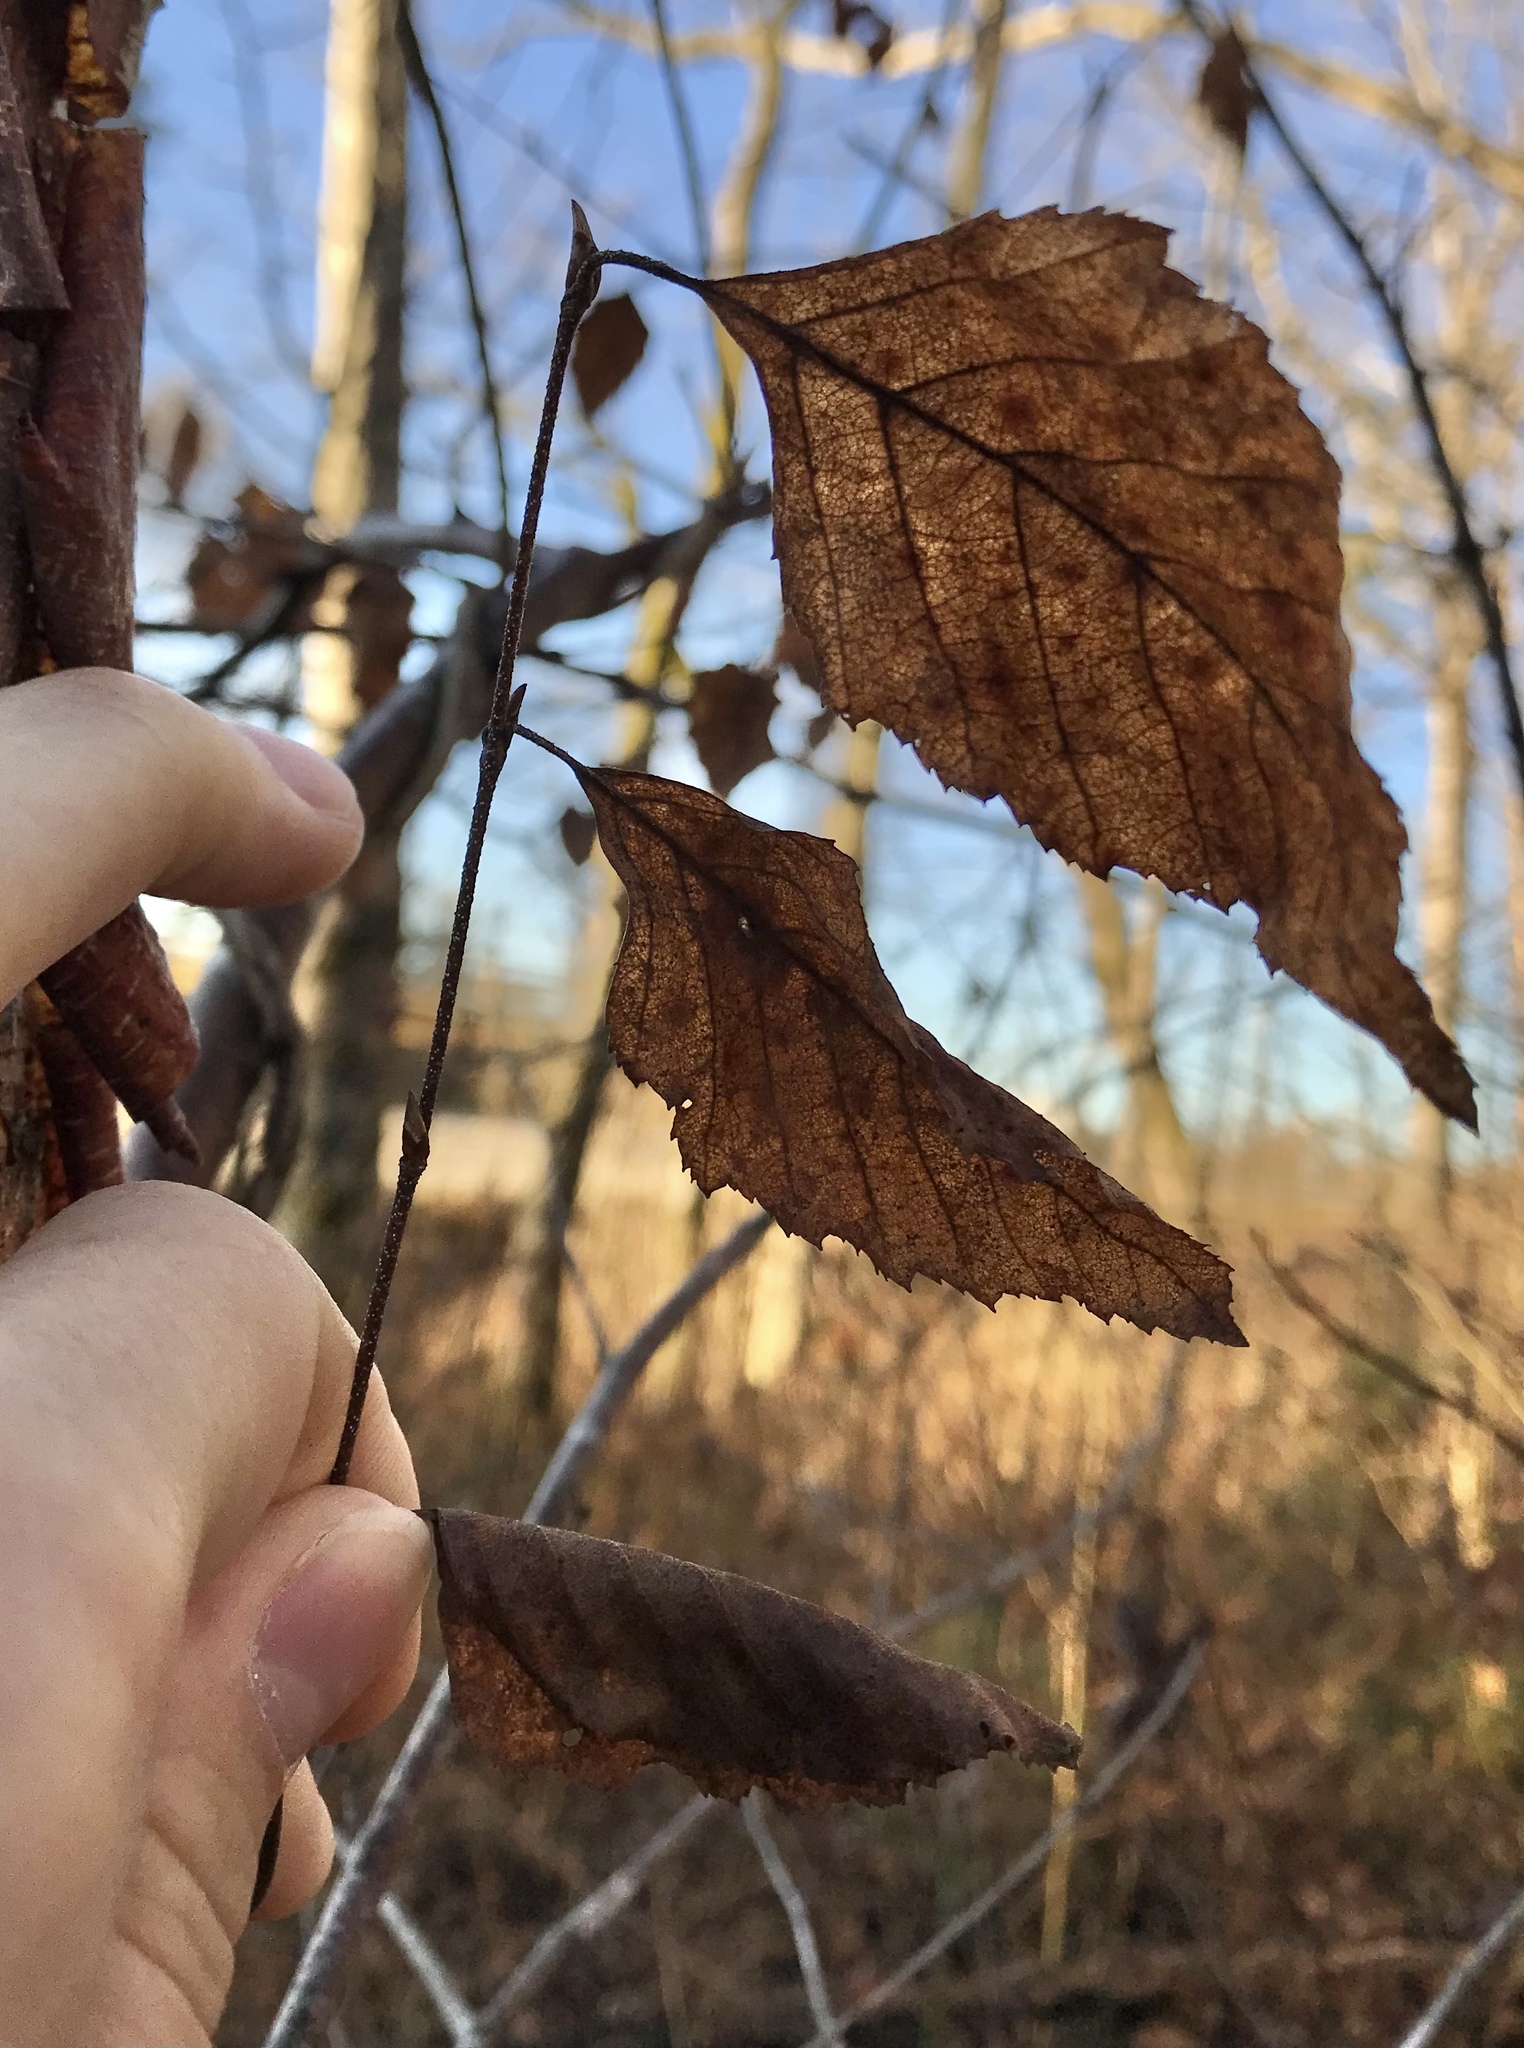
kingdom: Plantae
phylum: Tracheophyta
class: Magnoliopsida
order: Fagales
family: Betulaceae
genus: Betula
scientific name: Betula nigra
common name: Black birch
